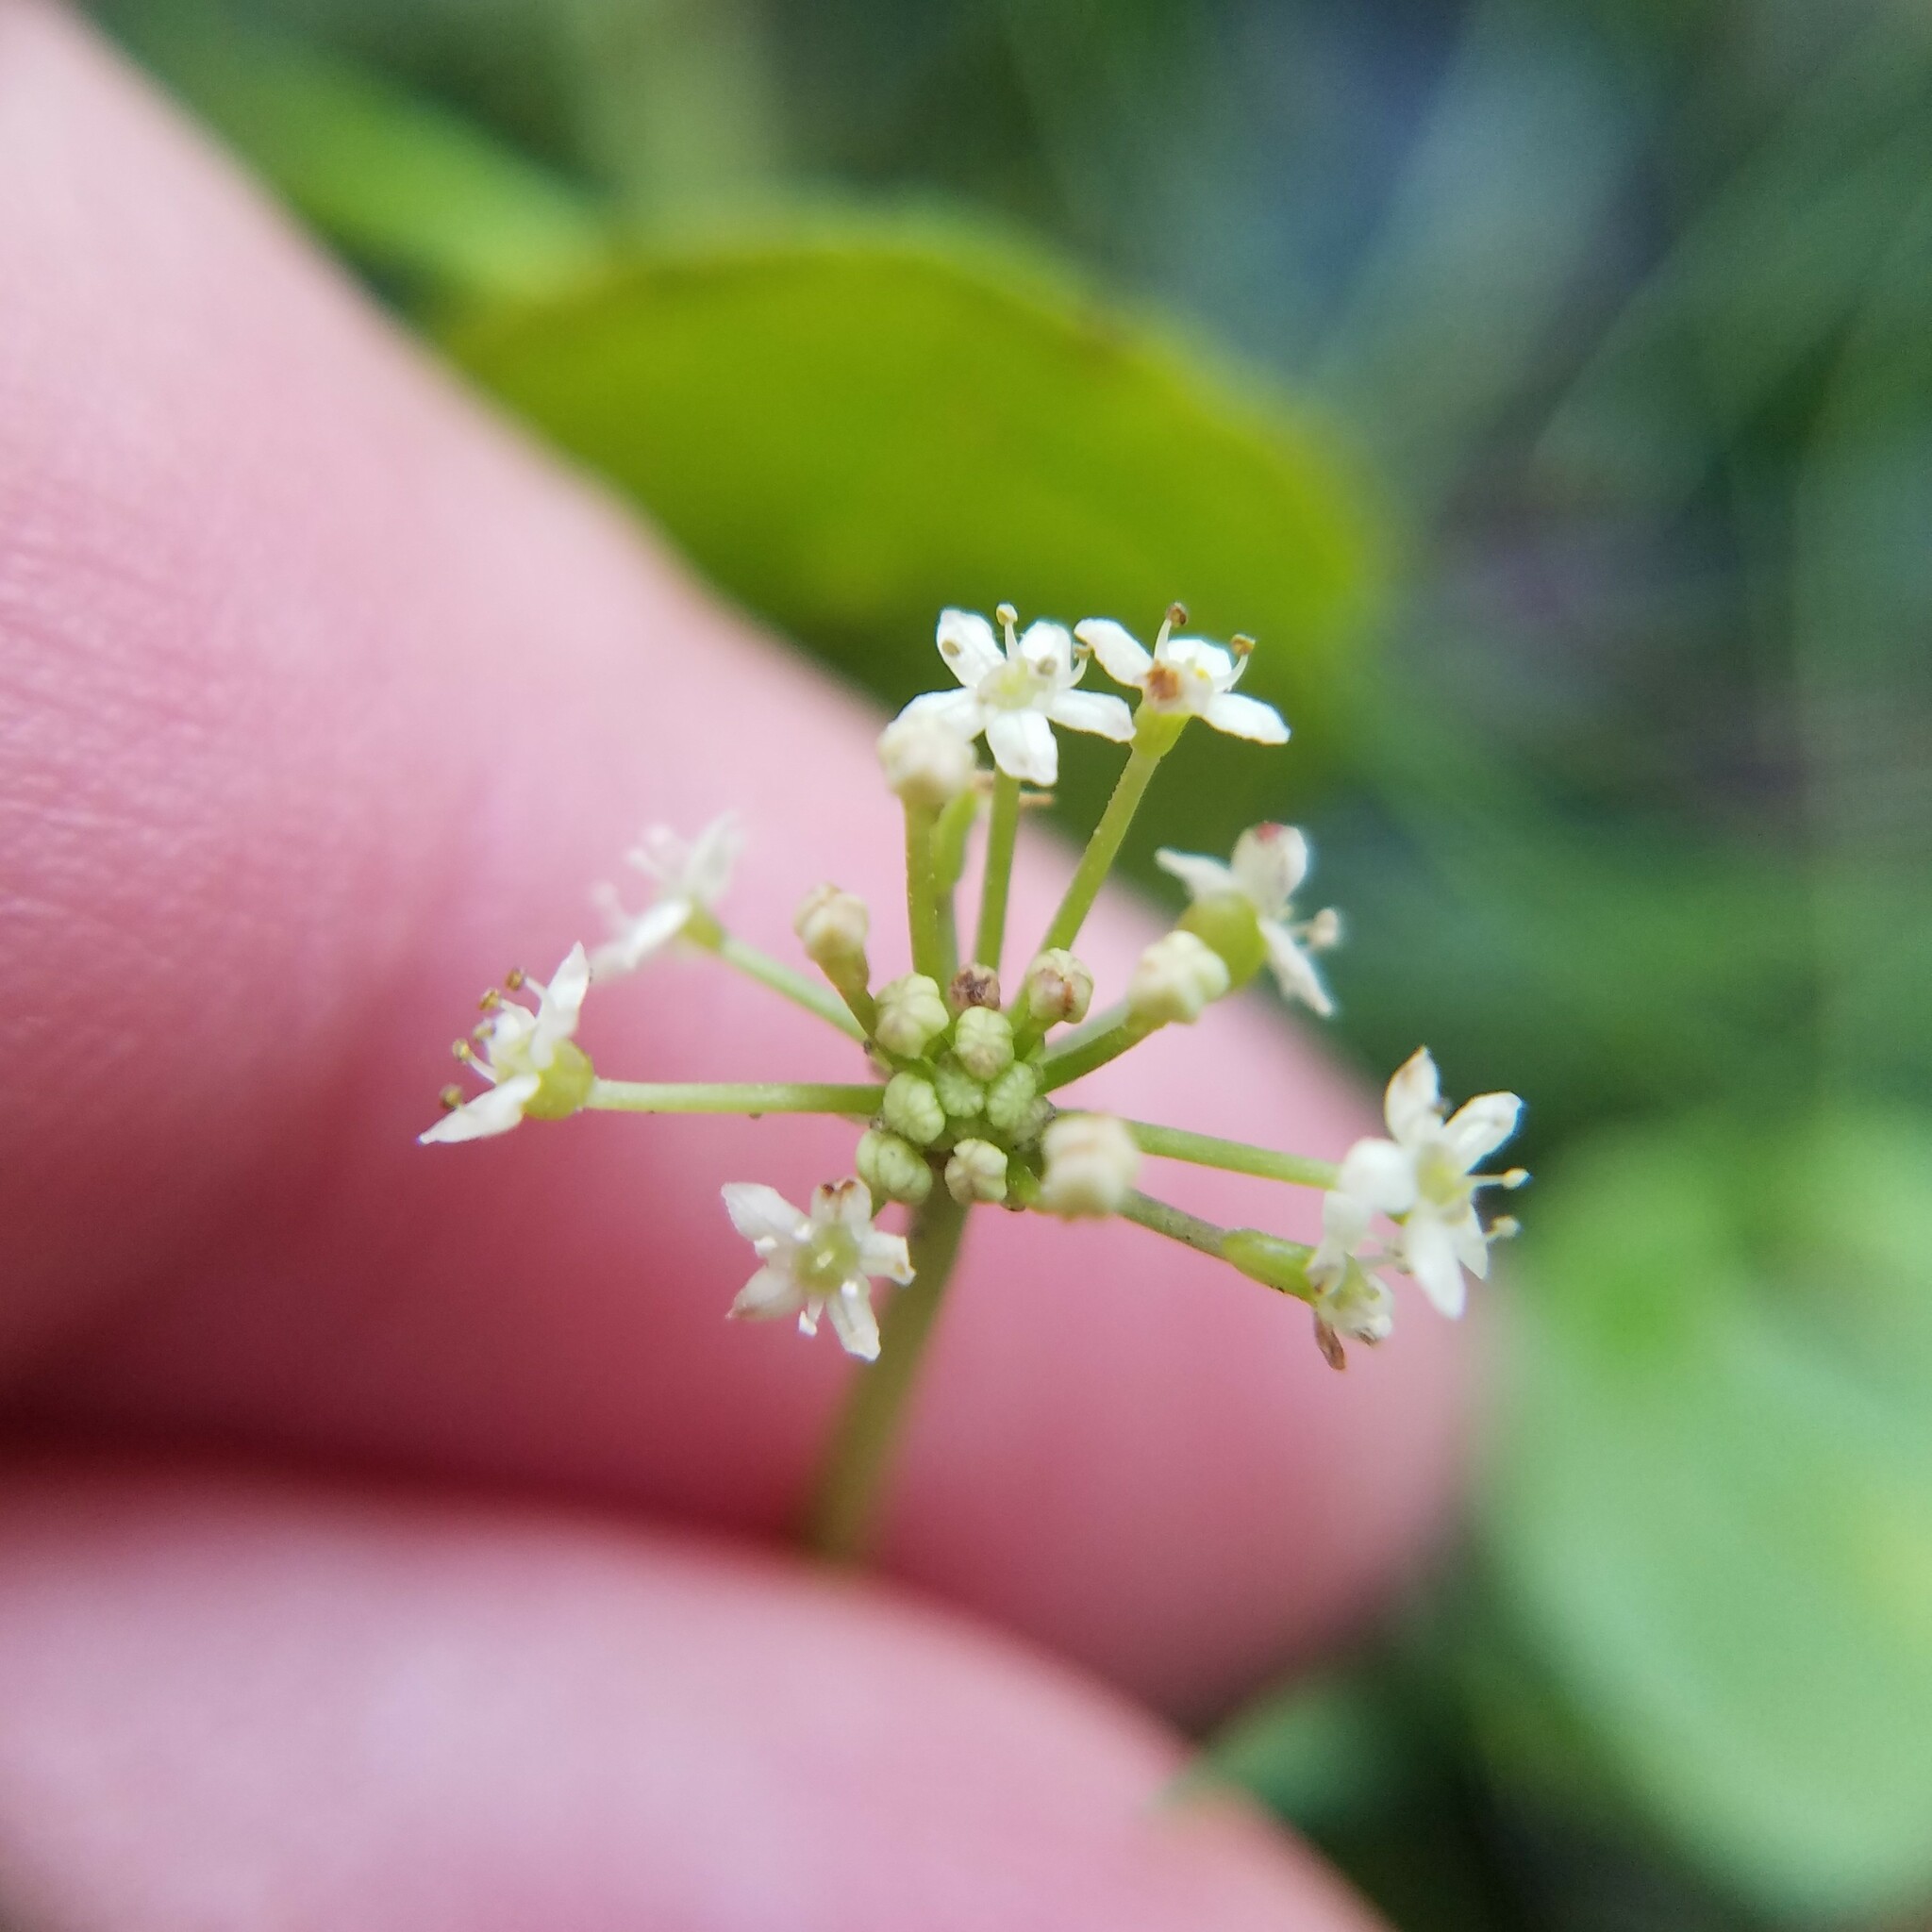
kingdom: Plantae
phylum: Tracheophyta
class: Magnoliopsida
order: Apiales
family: Araliaceae
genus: Hydrocotyle
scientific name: Hydrocotyle umbellata
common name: Water pennywort
